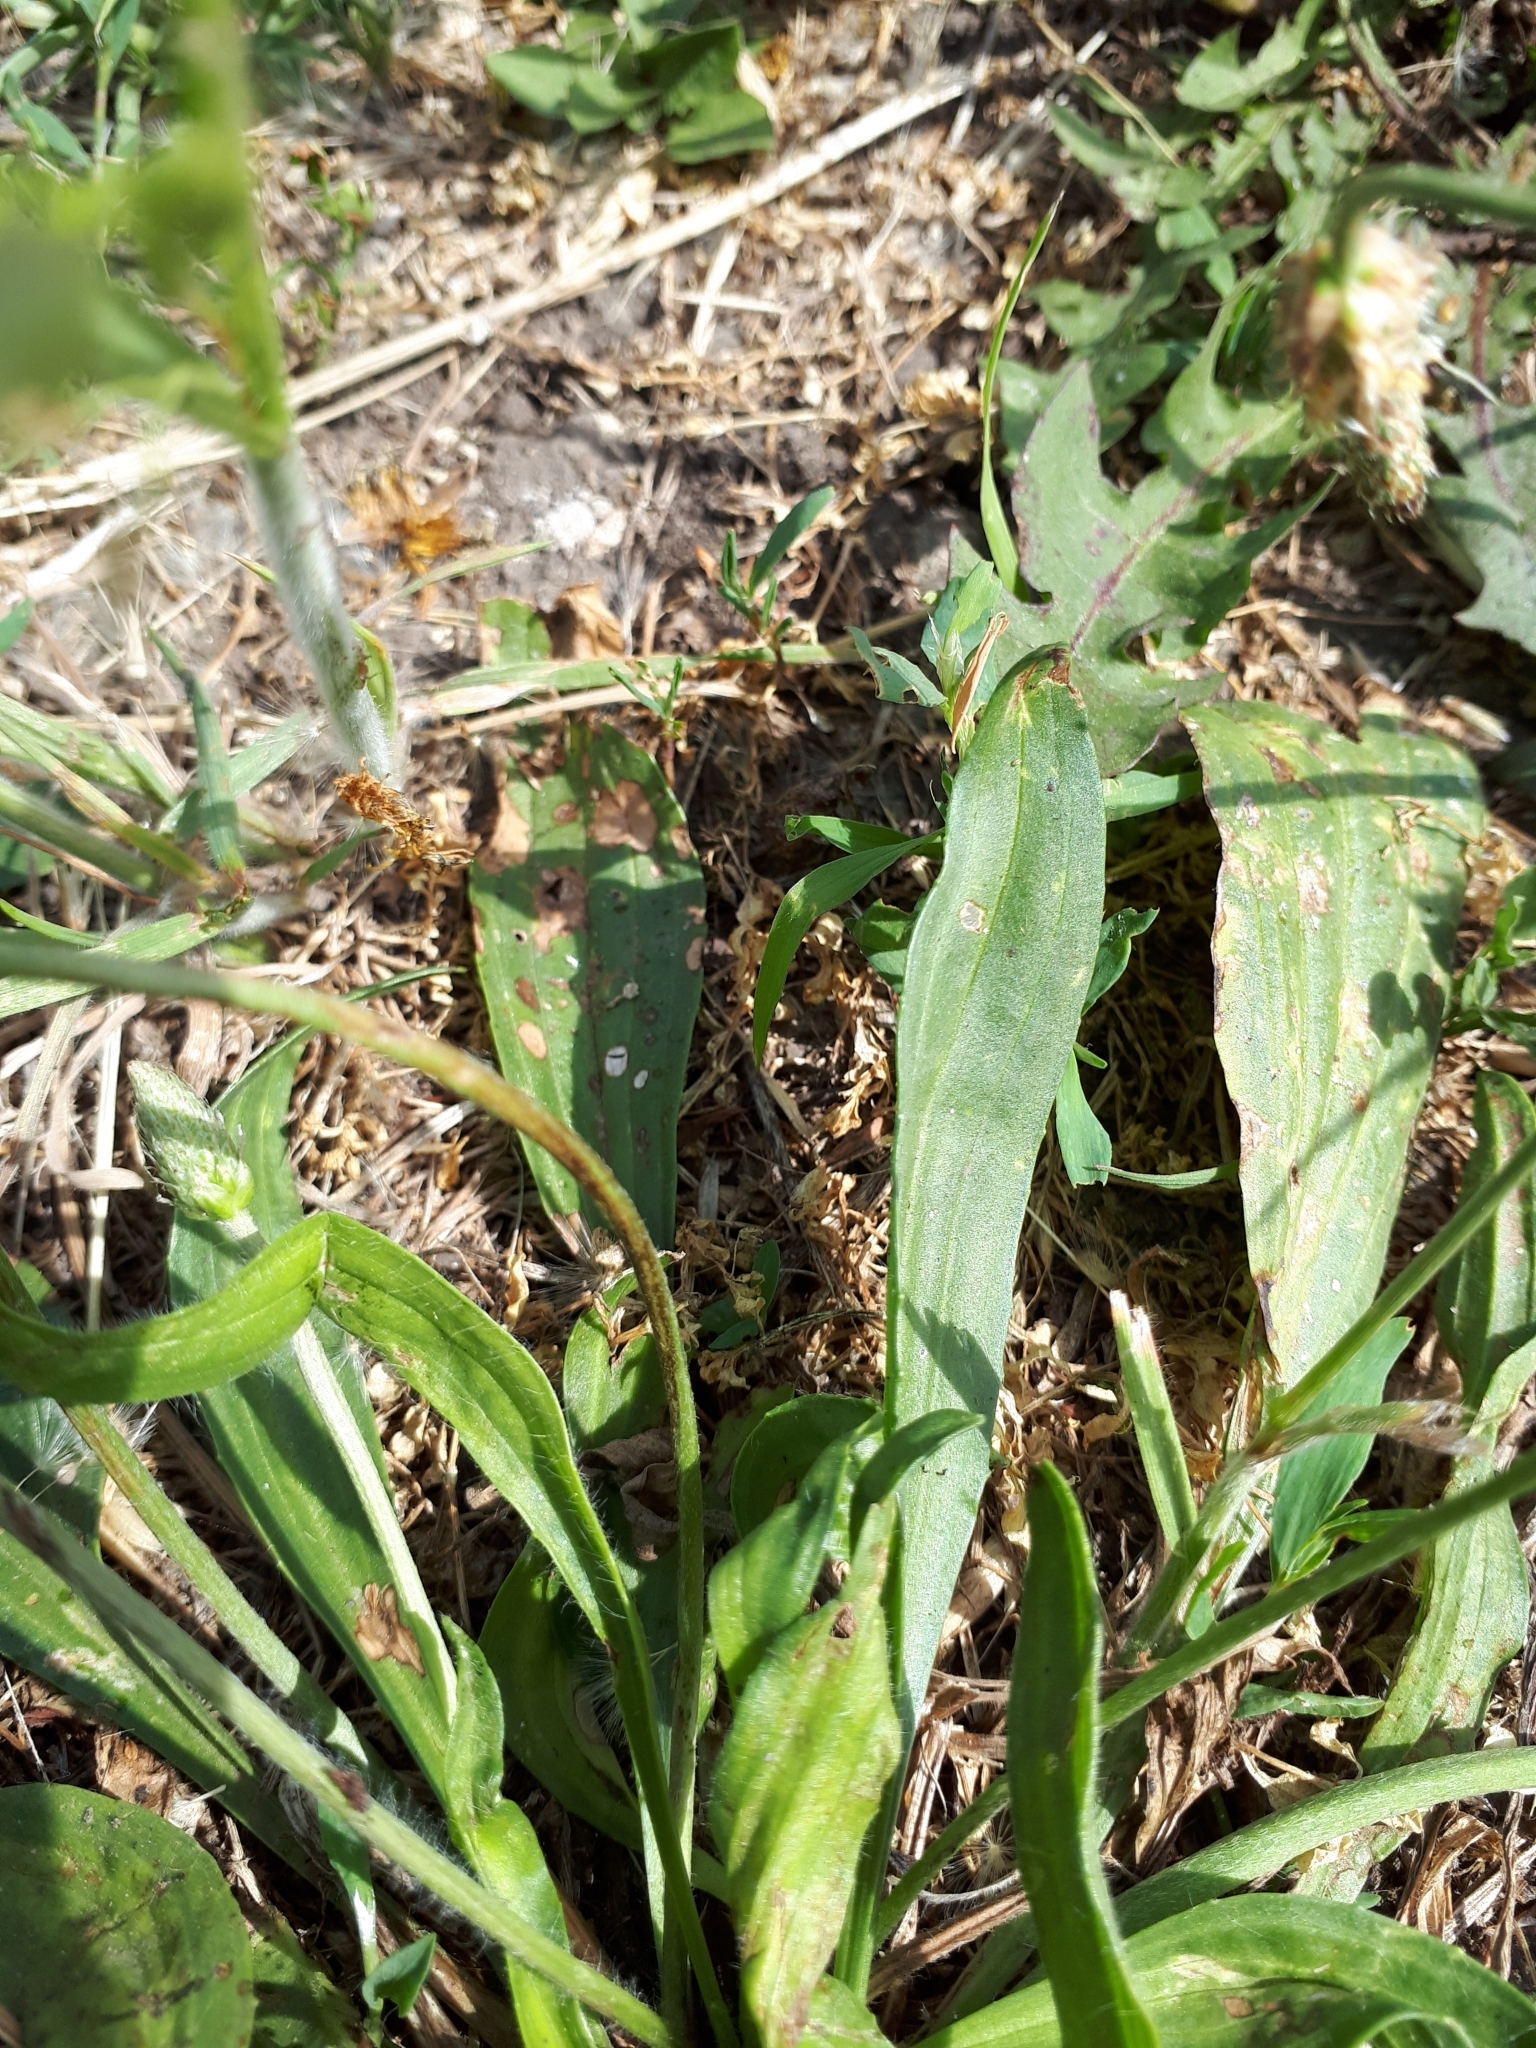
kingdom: Plantae
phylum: Tracheophyta
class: Magnoliopsida
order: Lamiales
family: Plantaginaceae
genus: Plantago
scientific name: Plantago lanceolata
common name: Ribwort plantain
